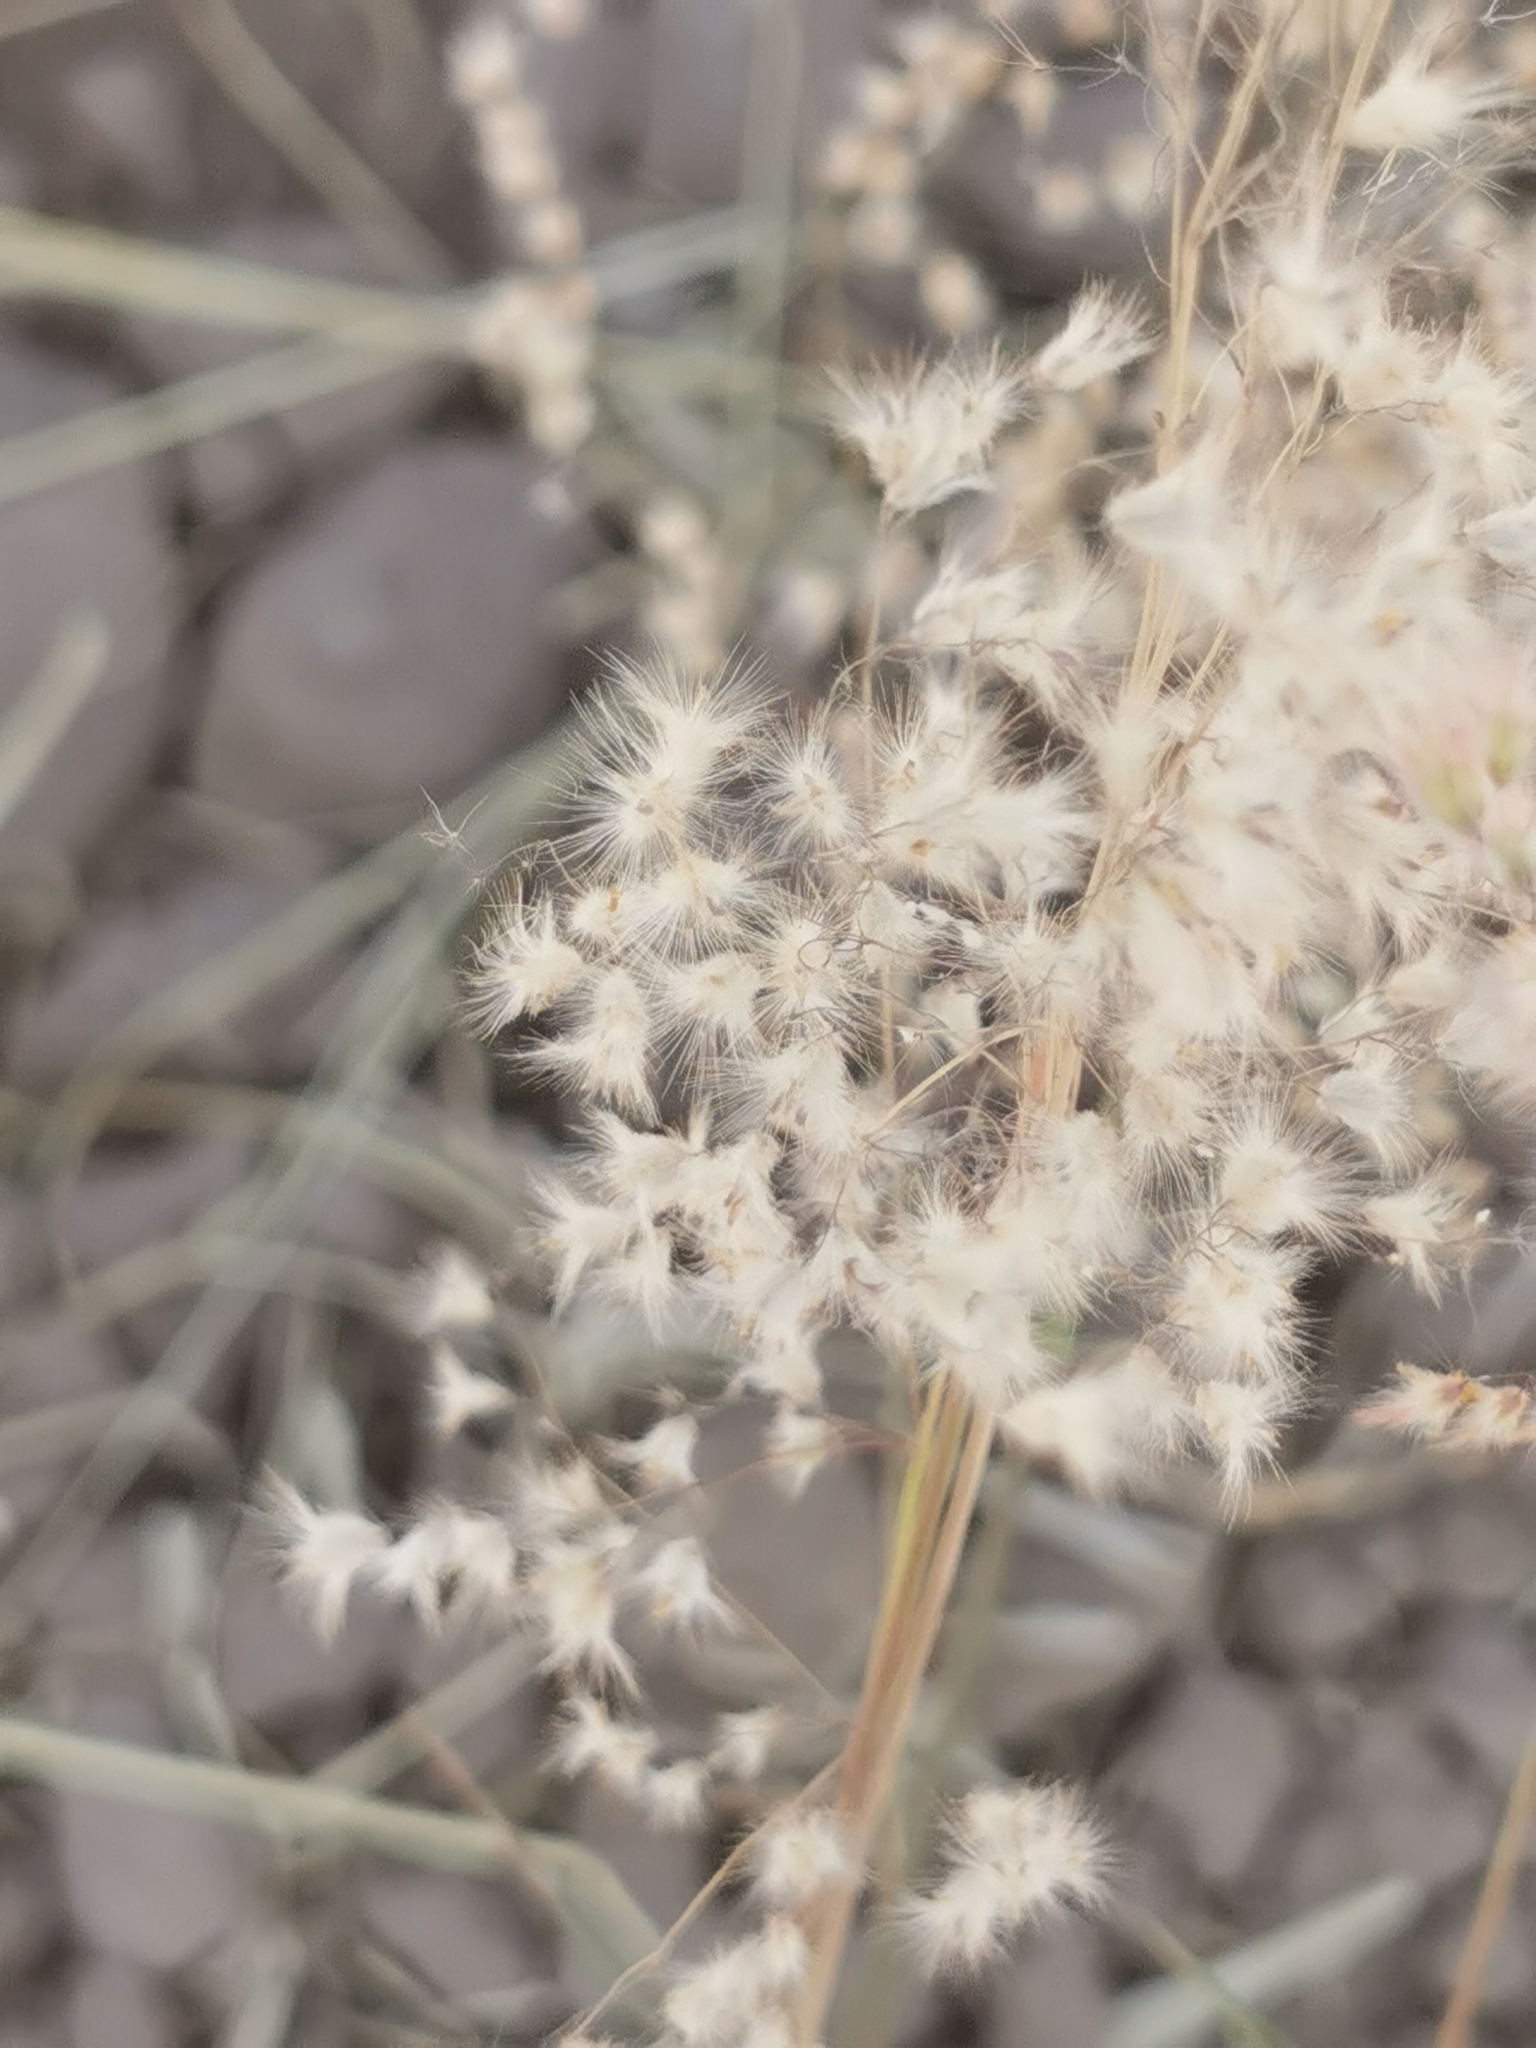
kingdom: Plantae
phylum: Tracheophyta
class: Liliopsida
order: Poales
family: Poaceae
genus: Melinis
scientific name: Melinis repens
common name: Rose natal grass
